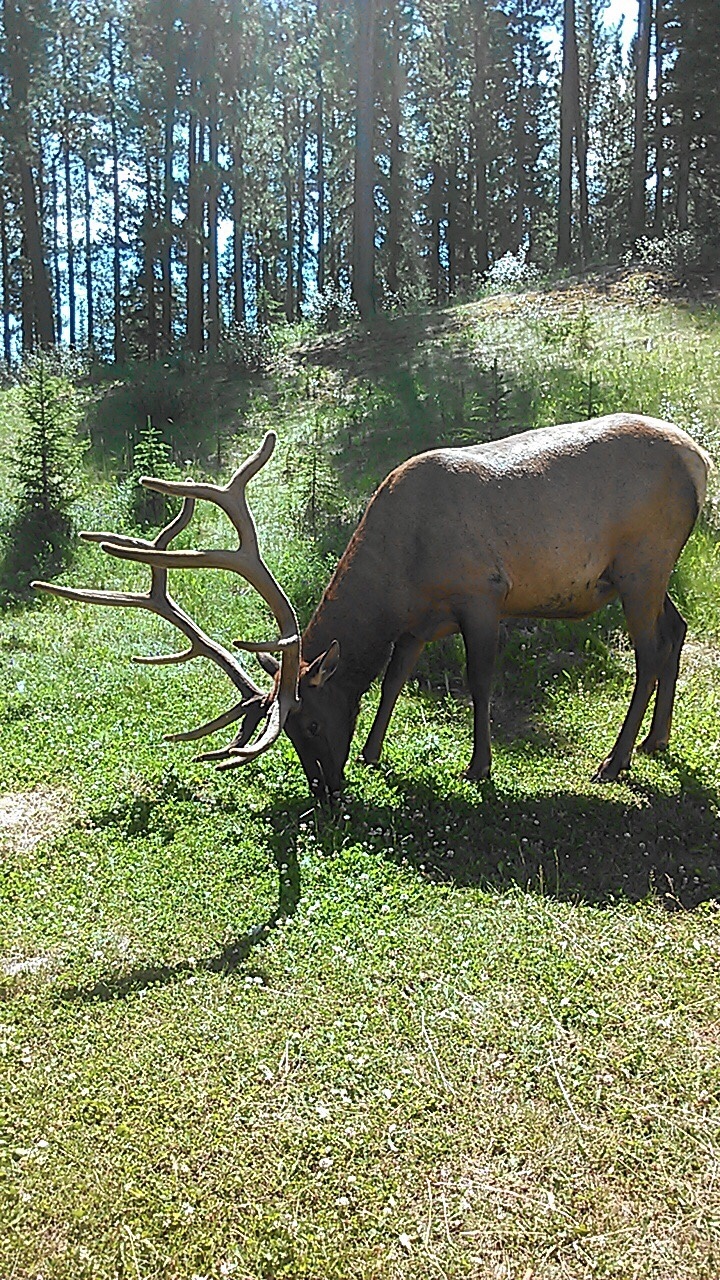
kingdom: Animalia
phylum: Chordata
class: Mammalia
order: Artiodactyla
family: Cervidae
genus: Cervus
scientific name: Cervus elaphus
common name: Red deer
